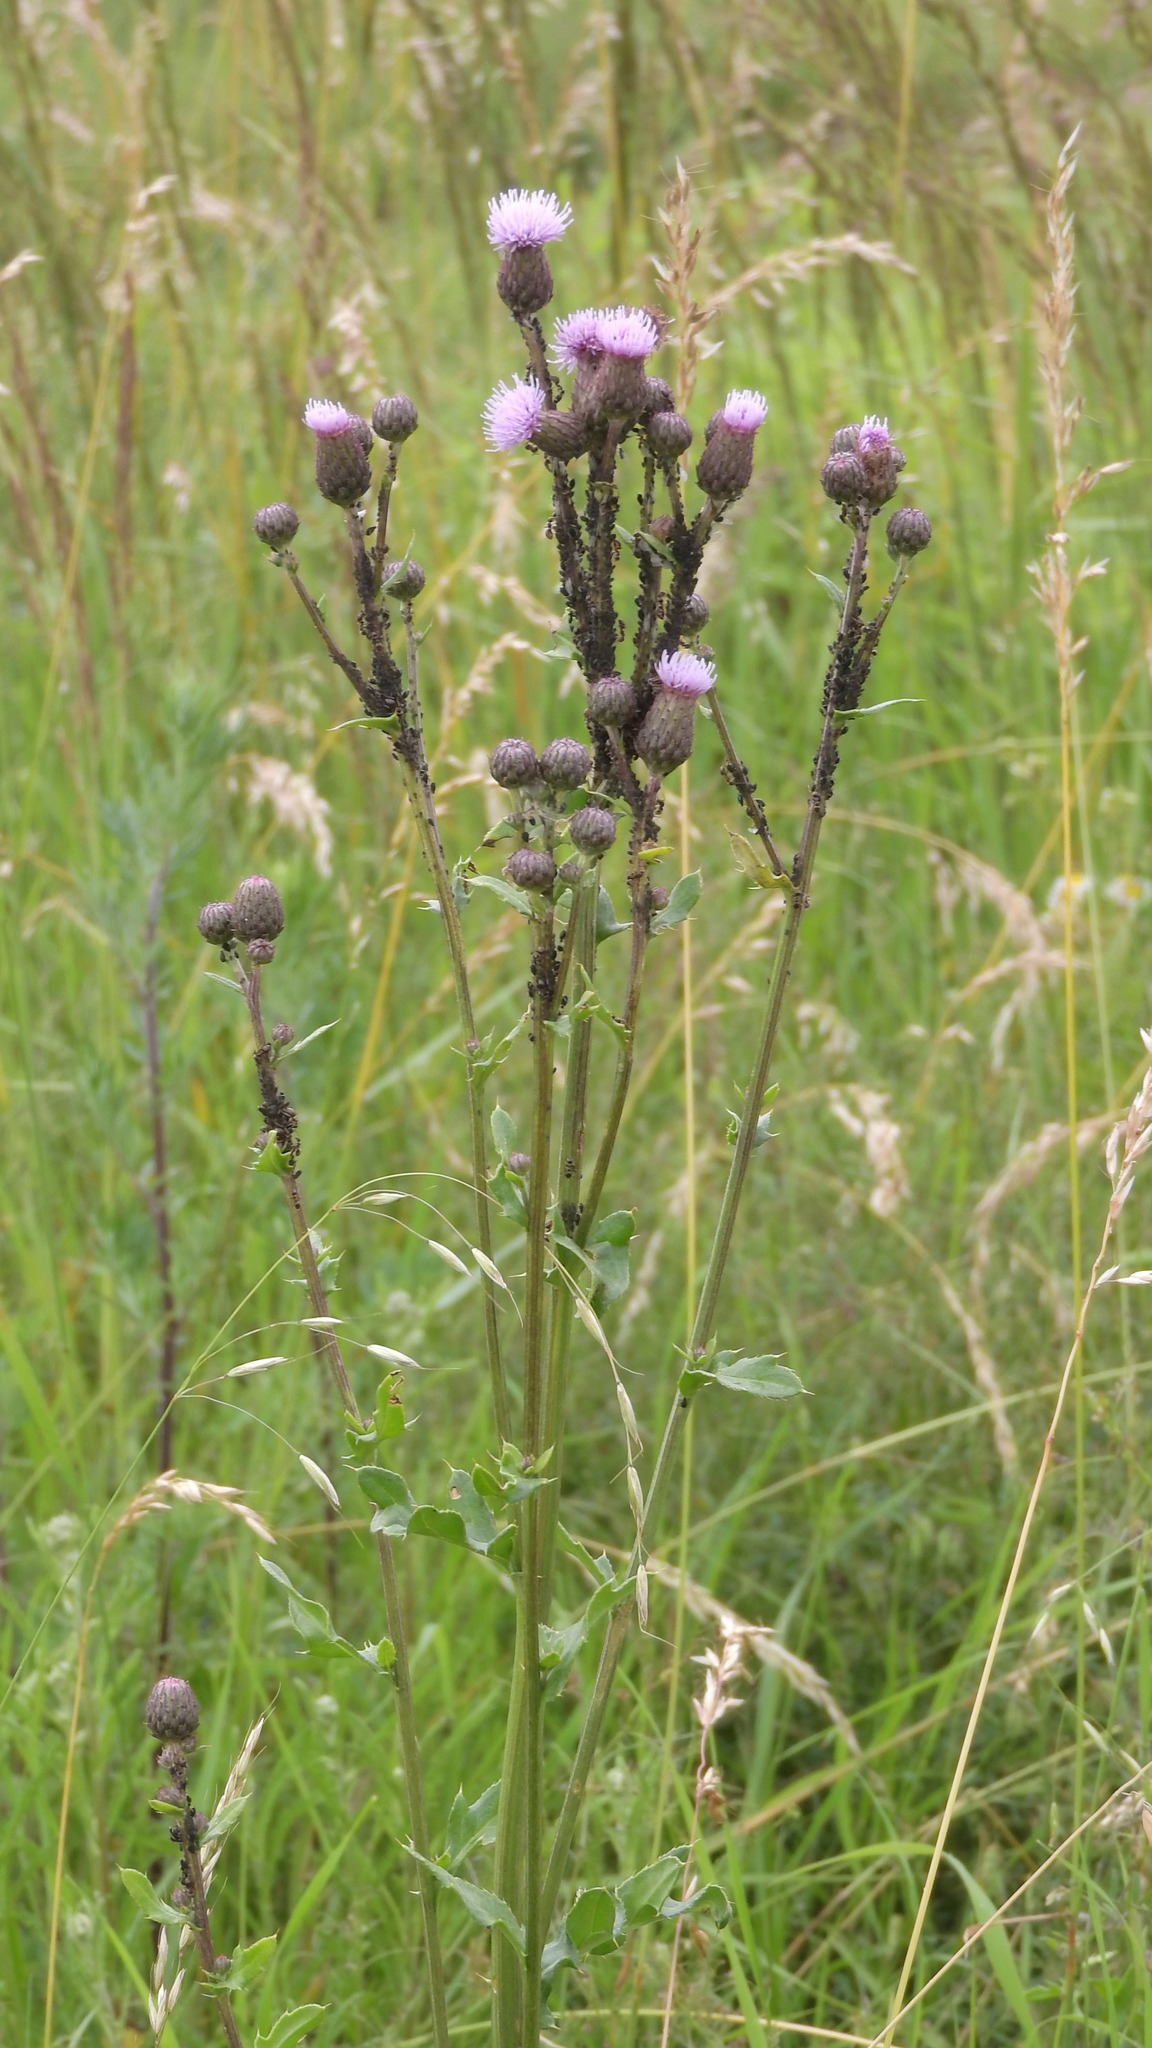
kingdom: Plantae
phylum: Tracheophyta
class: Magnoliopsida
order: Asterales
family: Asteraceae
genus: Cirsium
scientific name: Cirsium arvense
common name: Creeping thistle
